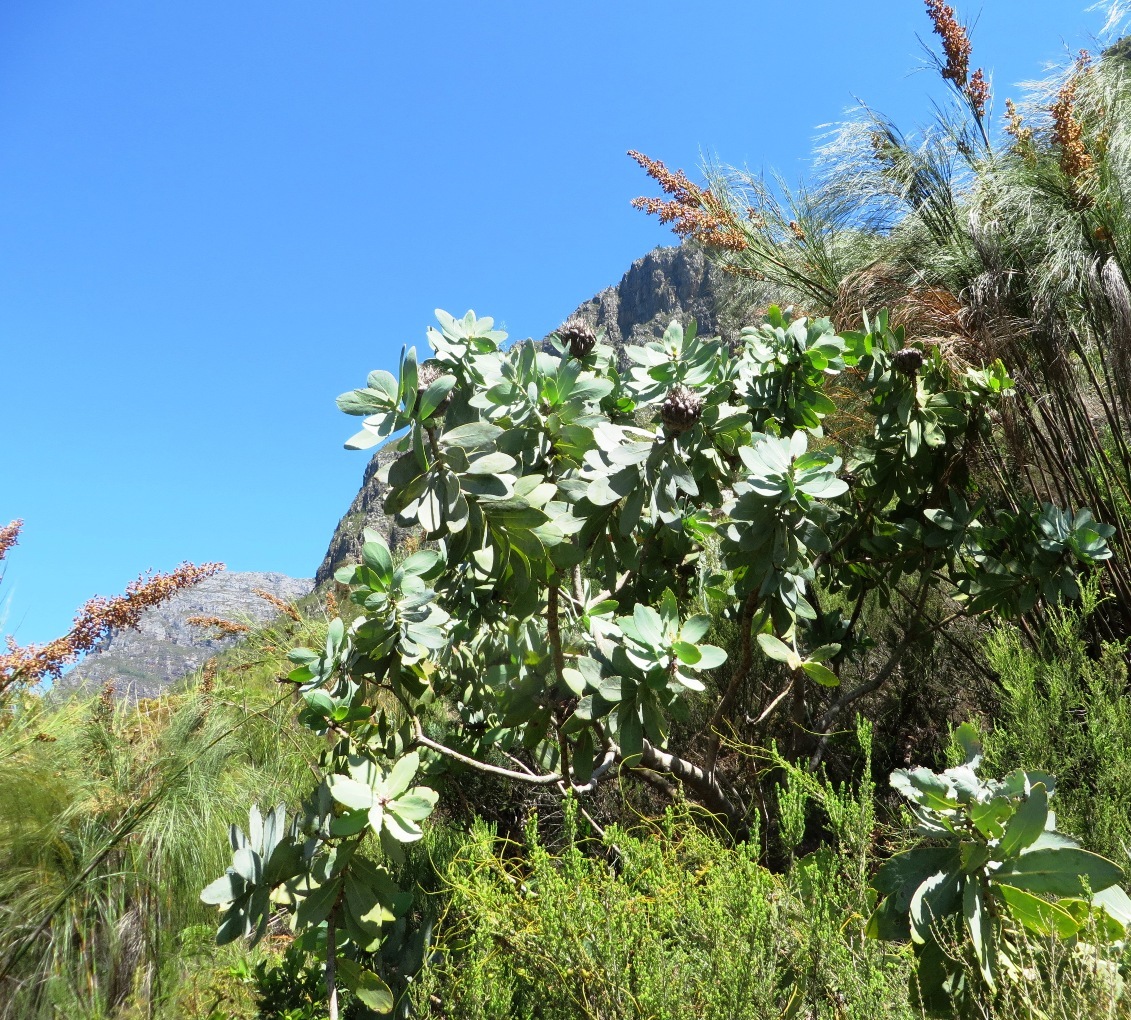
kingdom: Plantae
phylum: Tracheophyta
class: Magnoliopsida
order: Proteales
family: Proteaceae
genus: Protea
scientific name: Protea nitida
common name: Tree protea
